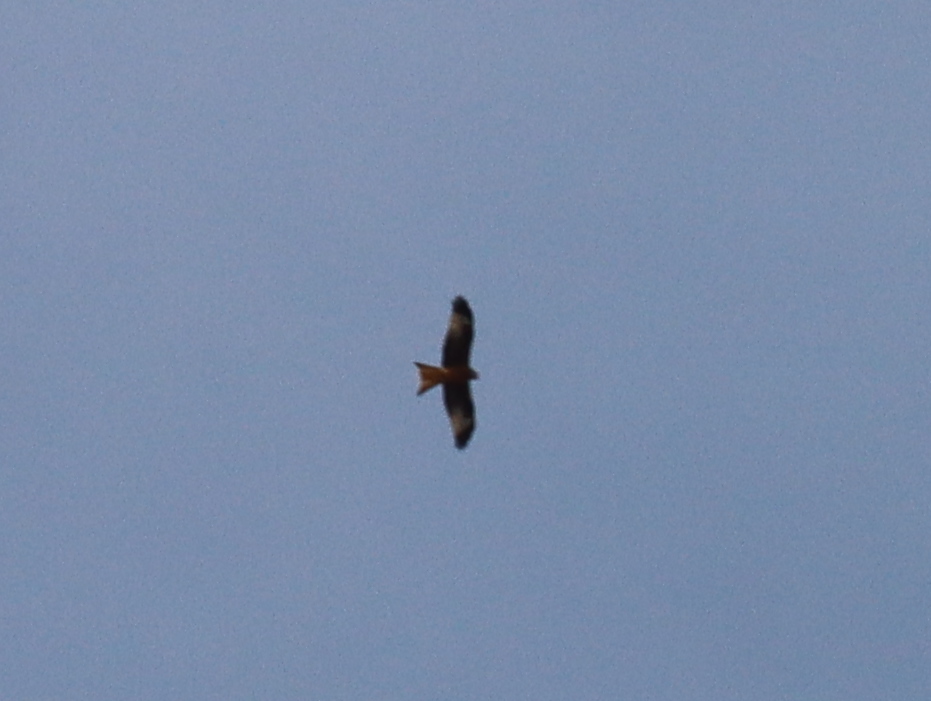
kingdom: Animalia
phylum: Chordata
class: Aves
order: Accipitriformes
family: Accipitridae
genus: Milvus
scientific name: Milvus milvus
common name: Red kite
